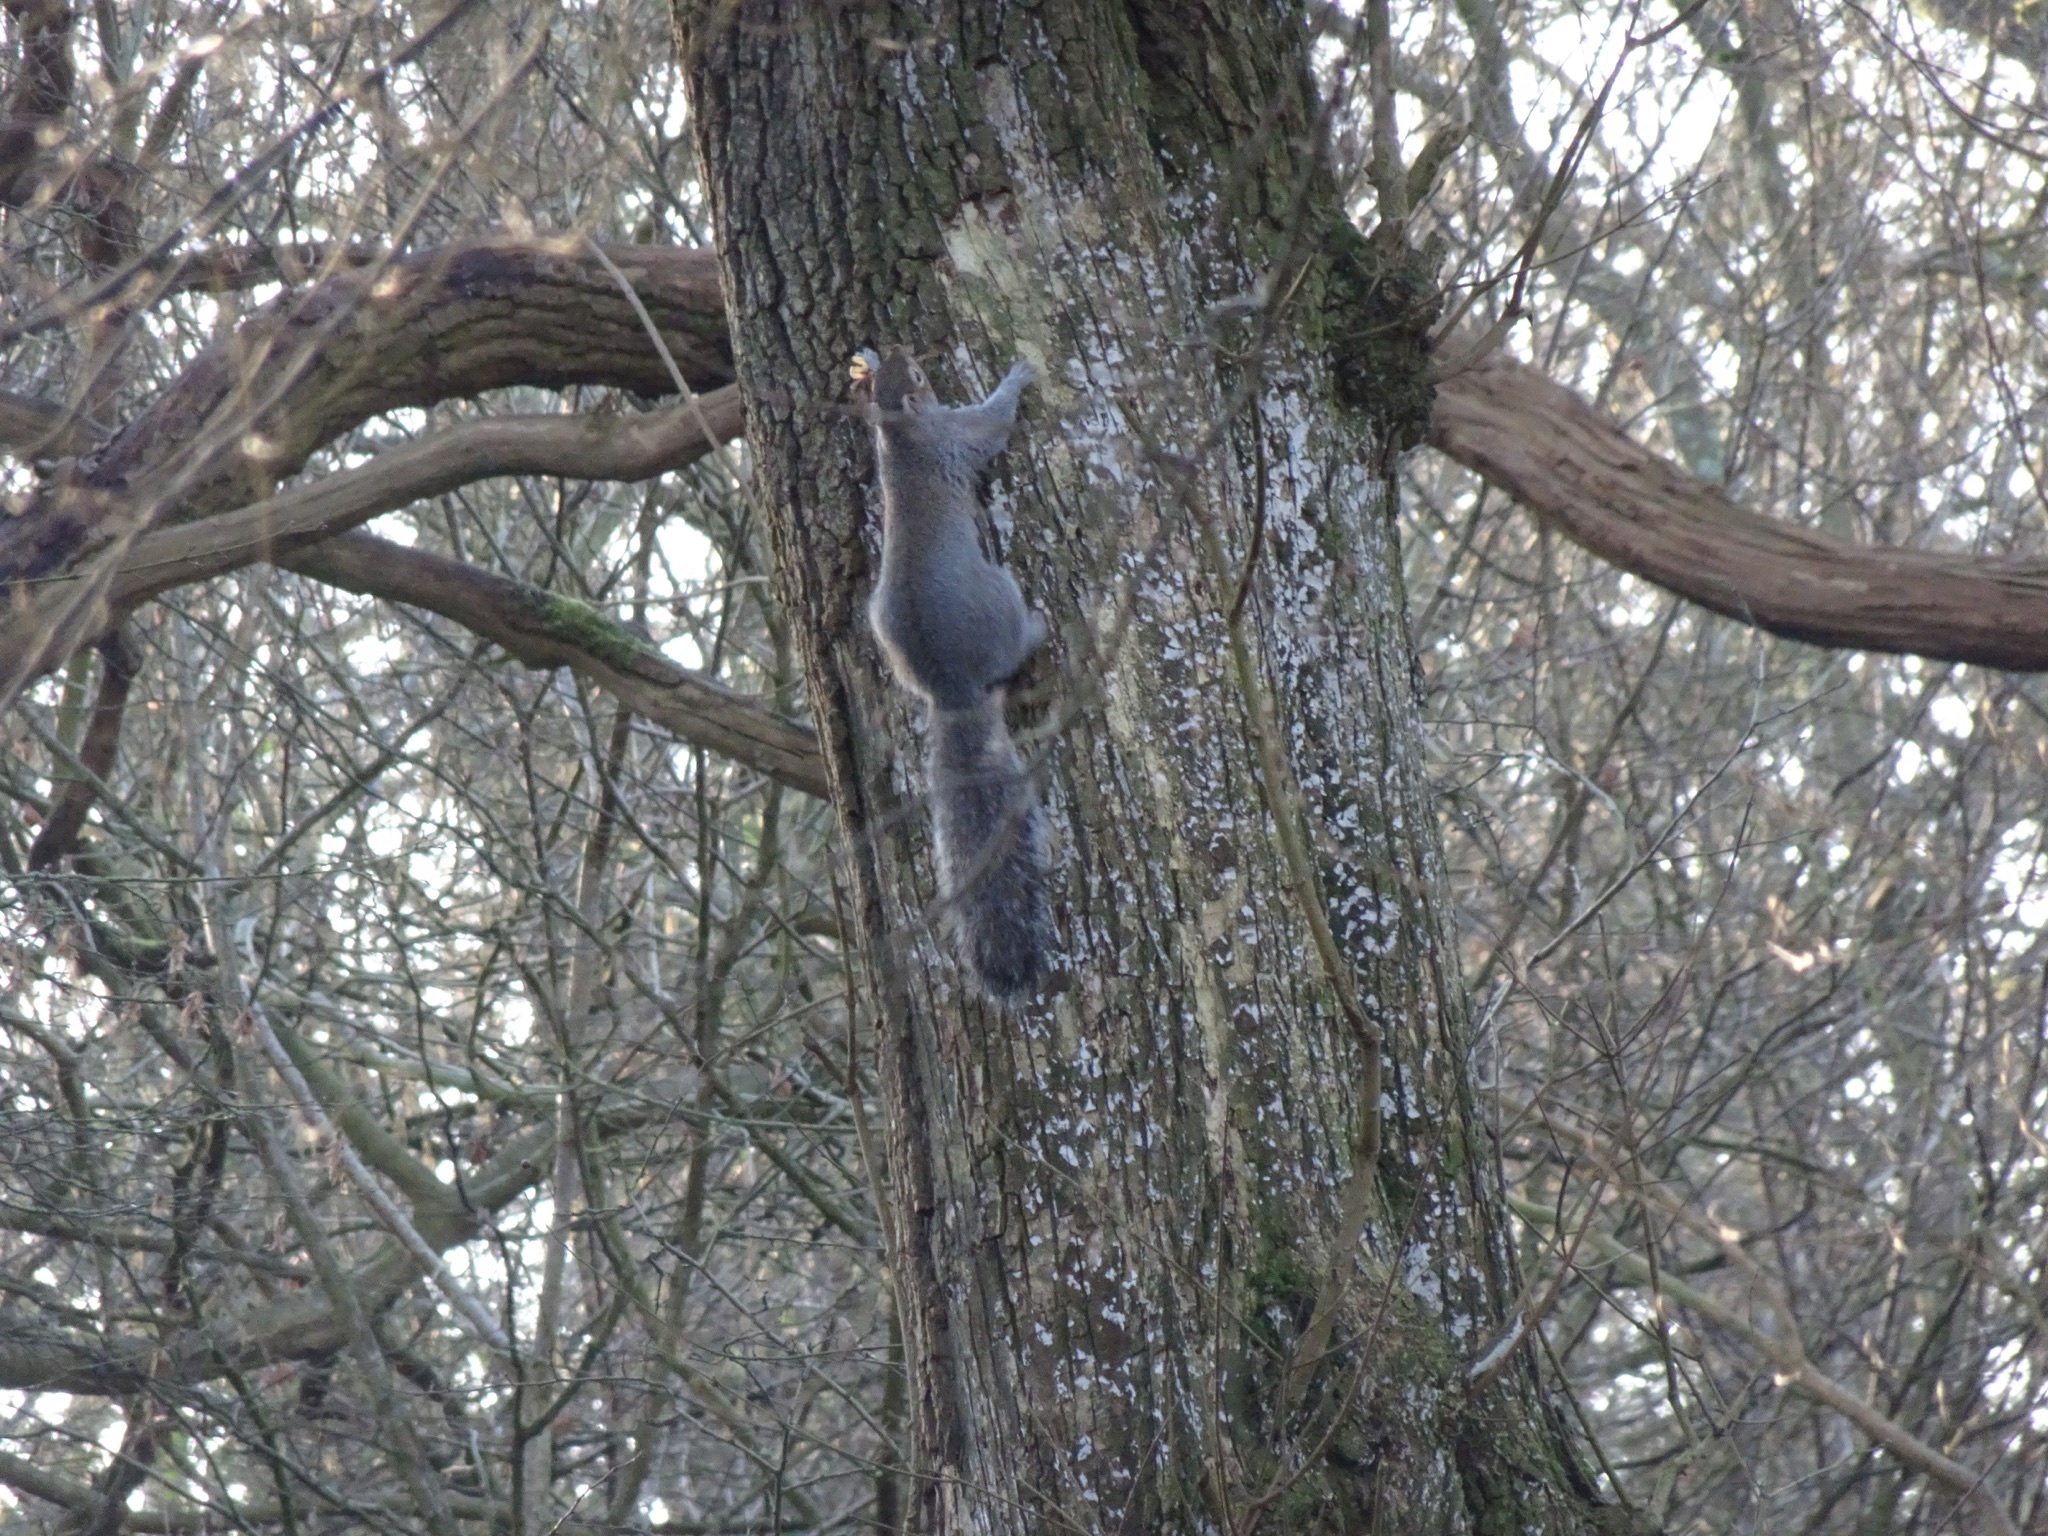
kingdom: Animalia
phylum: Chordata
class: Mammalia
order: Rodentia
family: Sciuridae
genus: Sciurus
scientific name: Sciurus carolinensis
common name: Eastern gray squirrel
